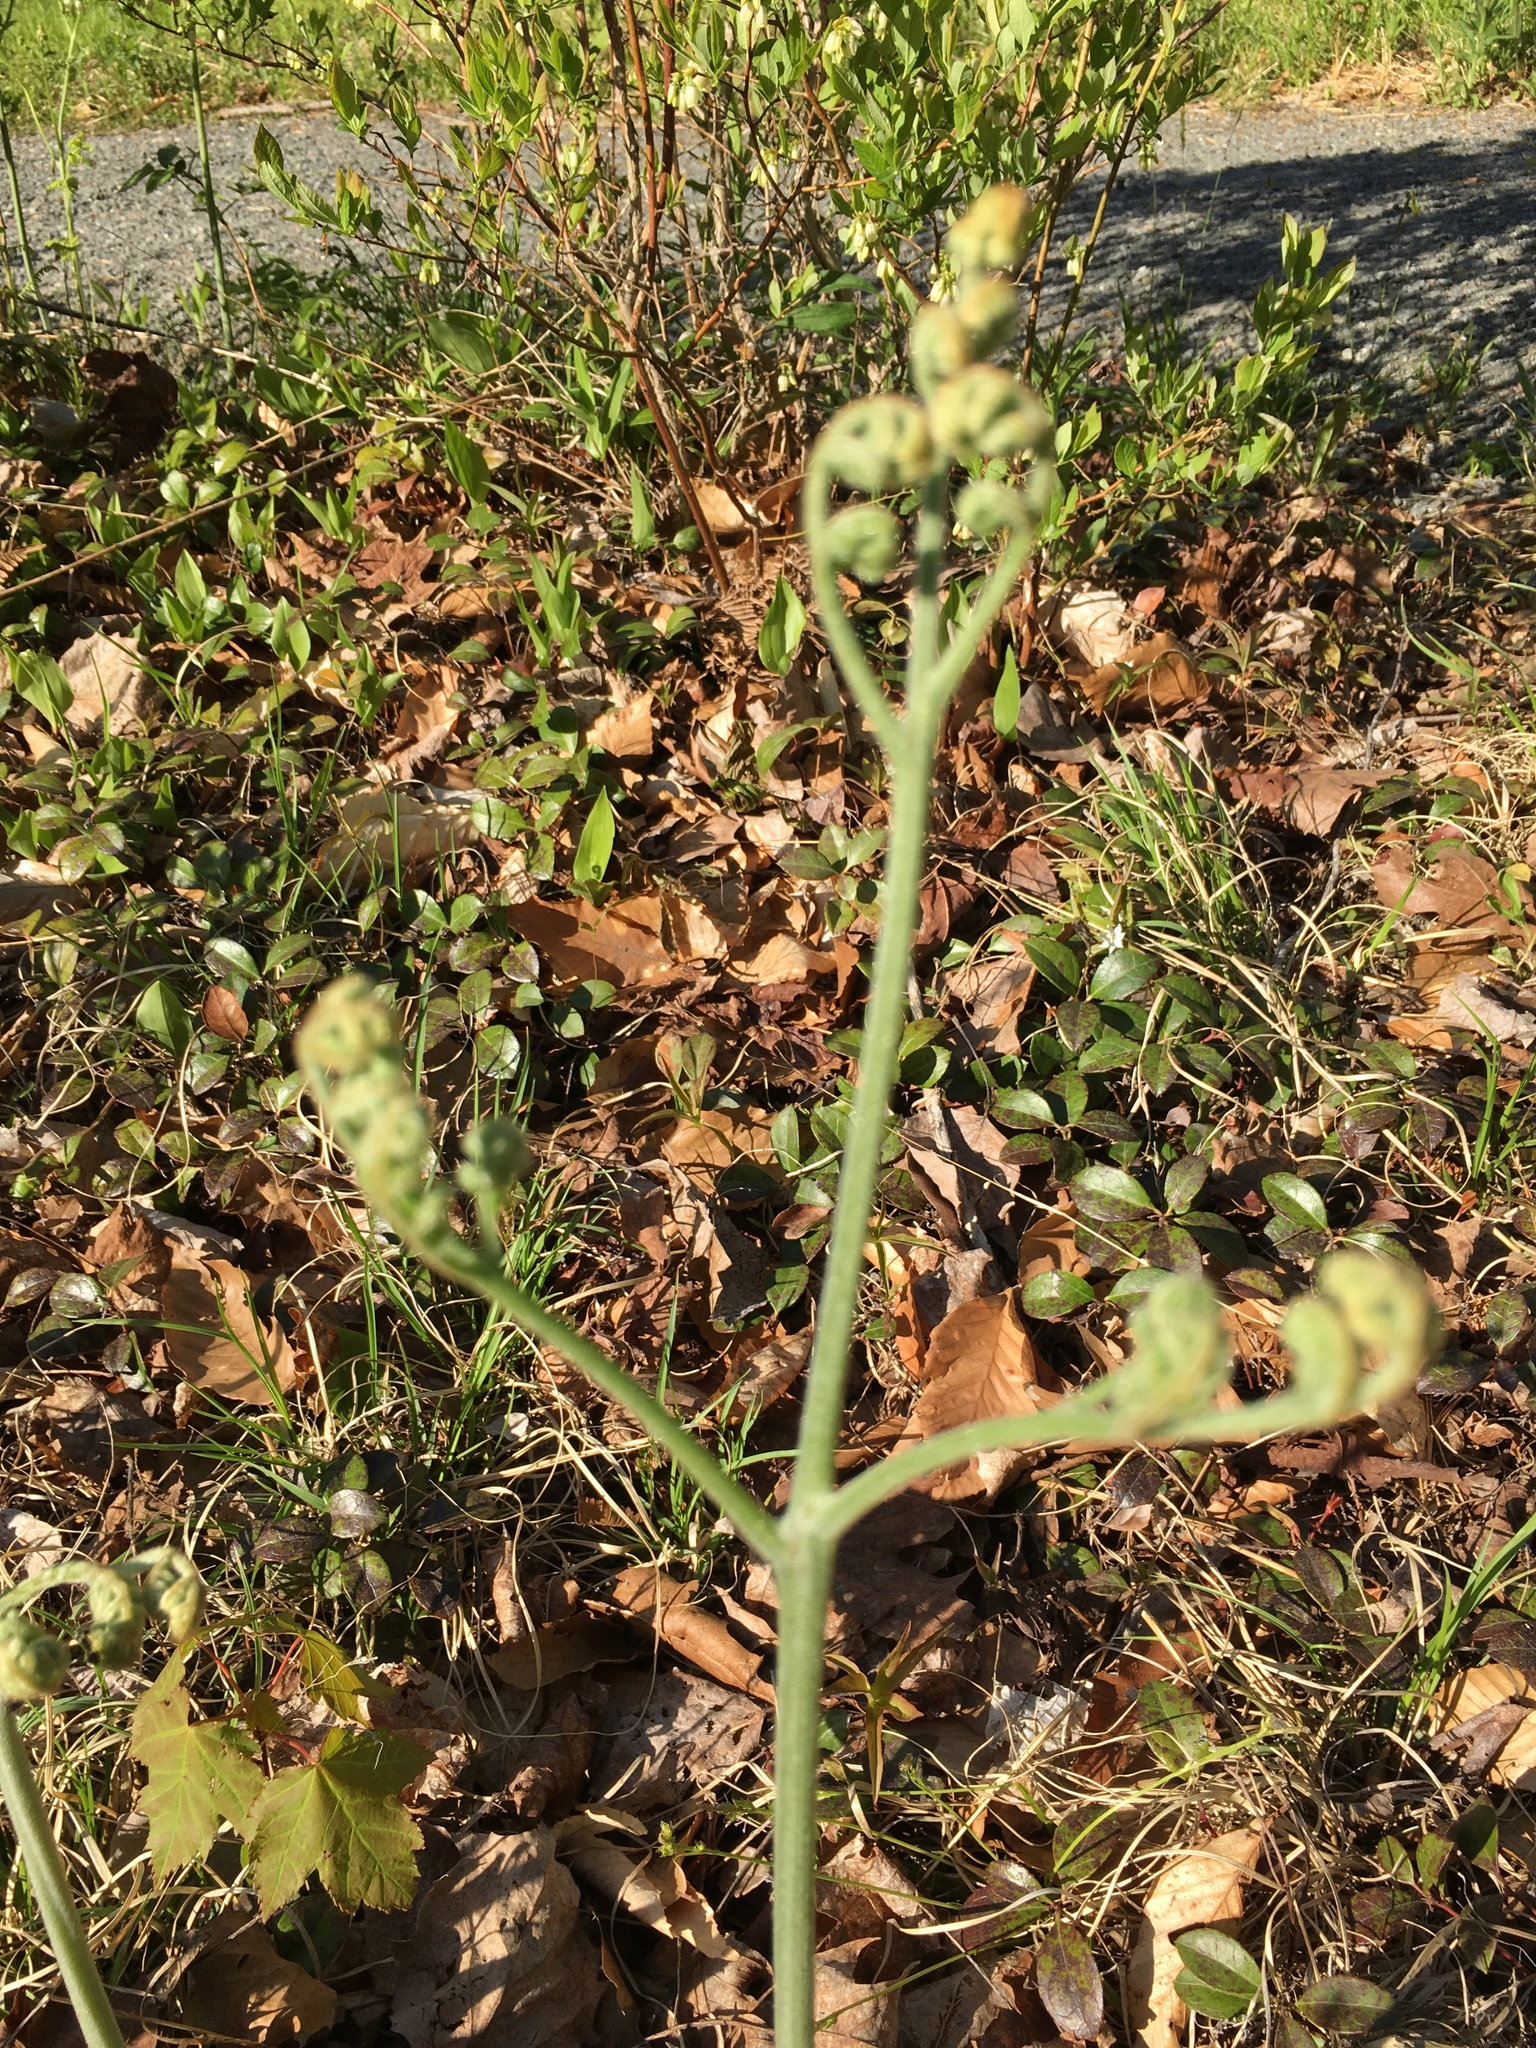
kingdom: Plantae
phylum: Tracheophyta
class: Polypodiopsida
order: Polypodiales
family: Dennstaedtiaceae
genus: Pteridium
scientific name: Pteridium aquilinum
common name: Bracken
